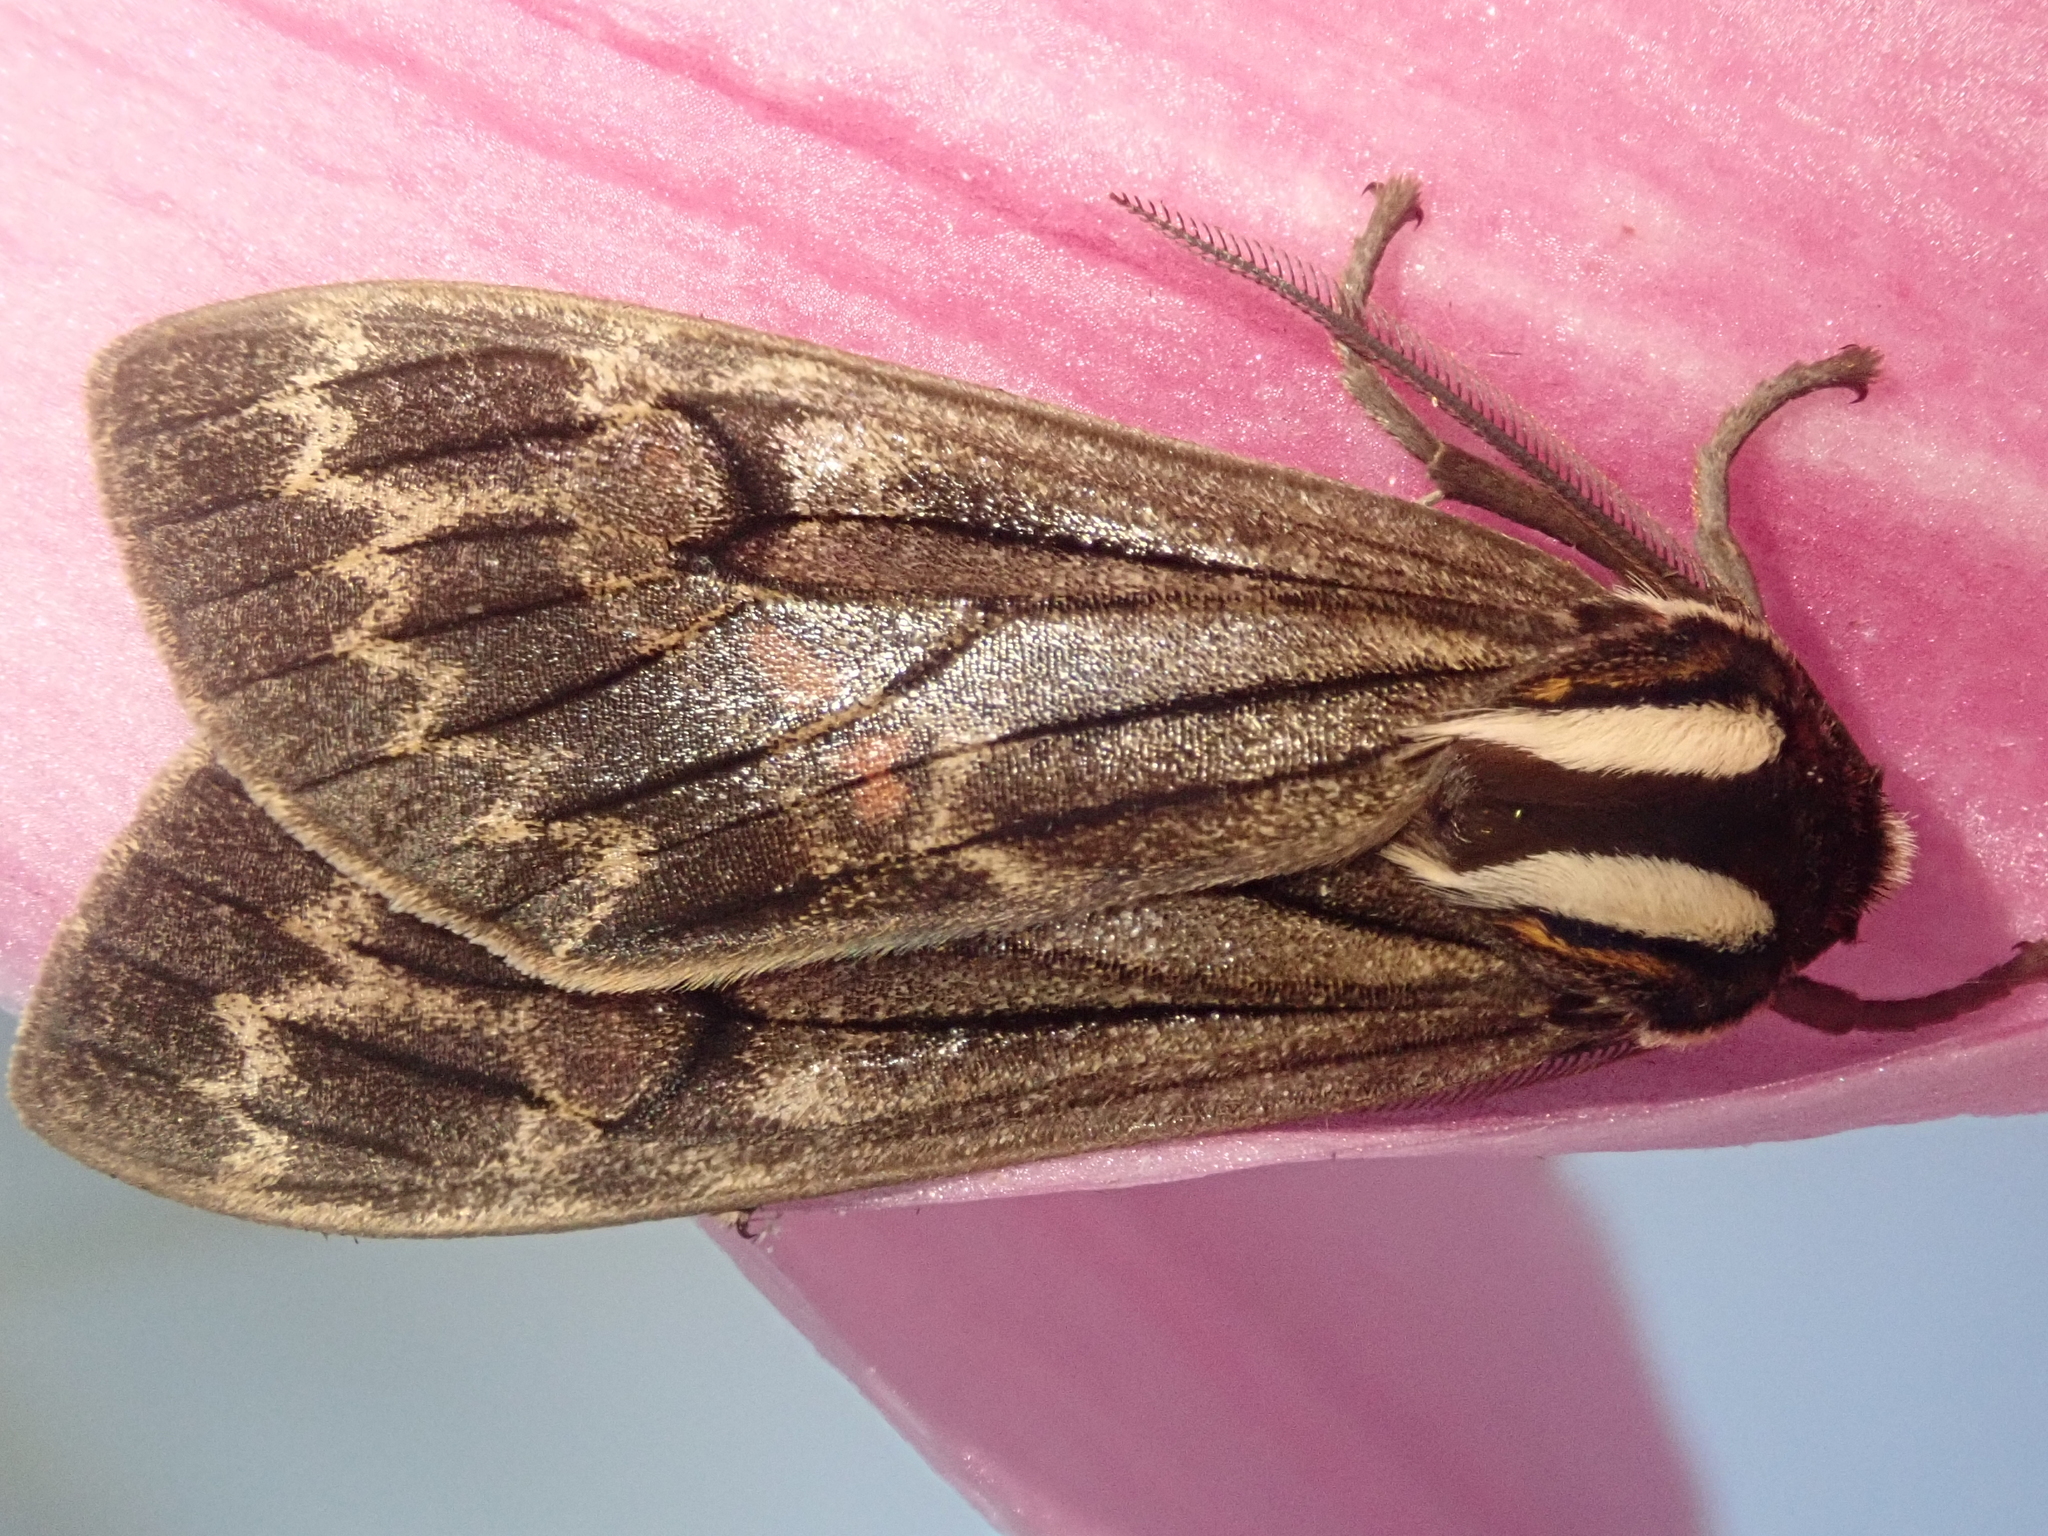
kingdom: Animalia
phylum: Arthropoda
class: Insecta
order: Lepidoptera
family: Erebidae
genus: Amastus
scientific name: Amastus antonio
